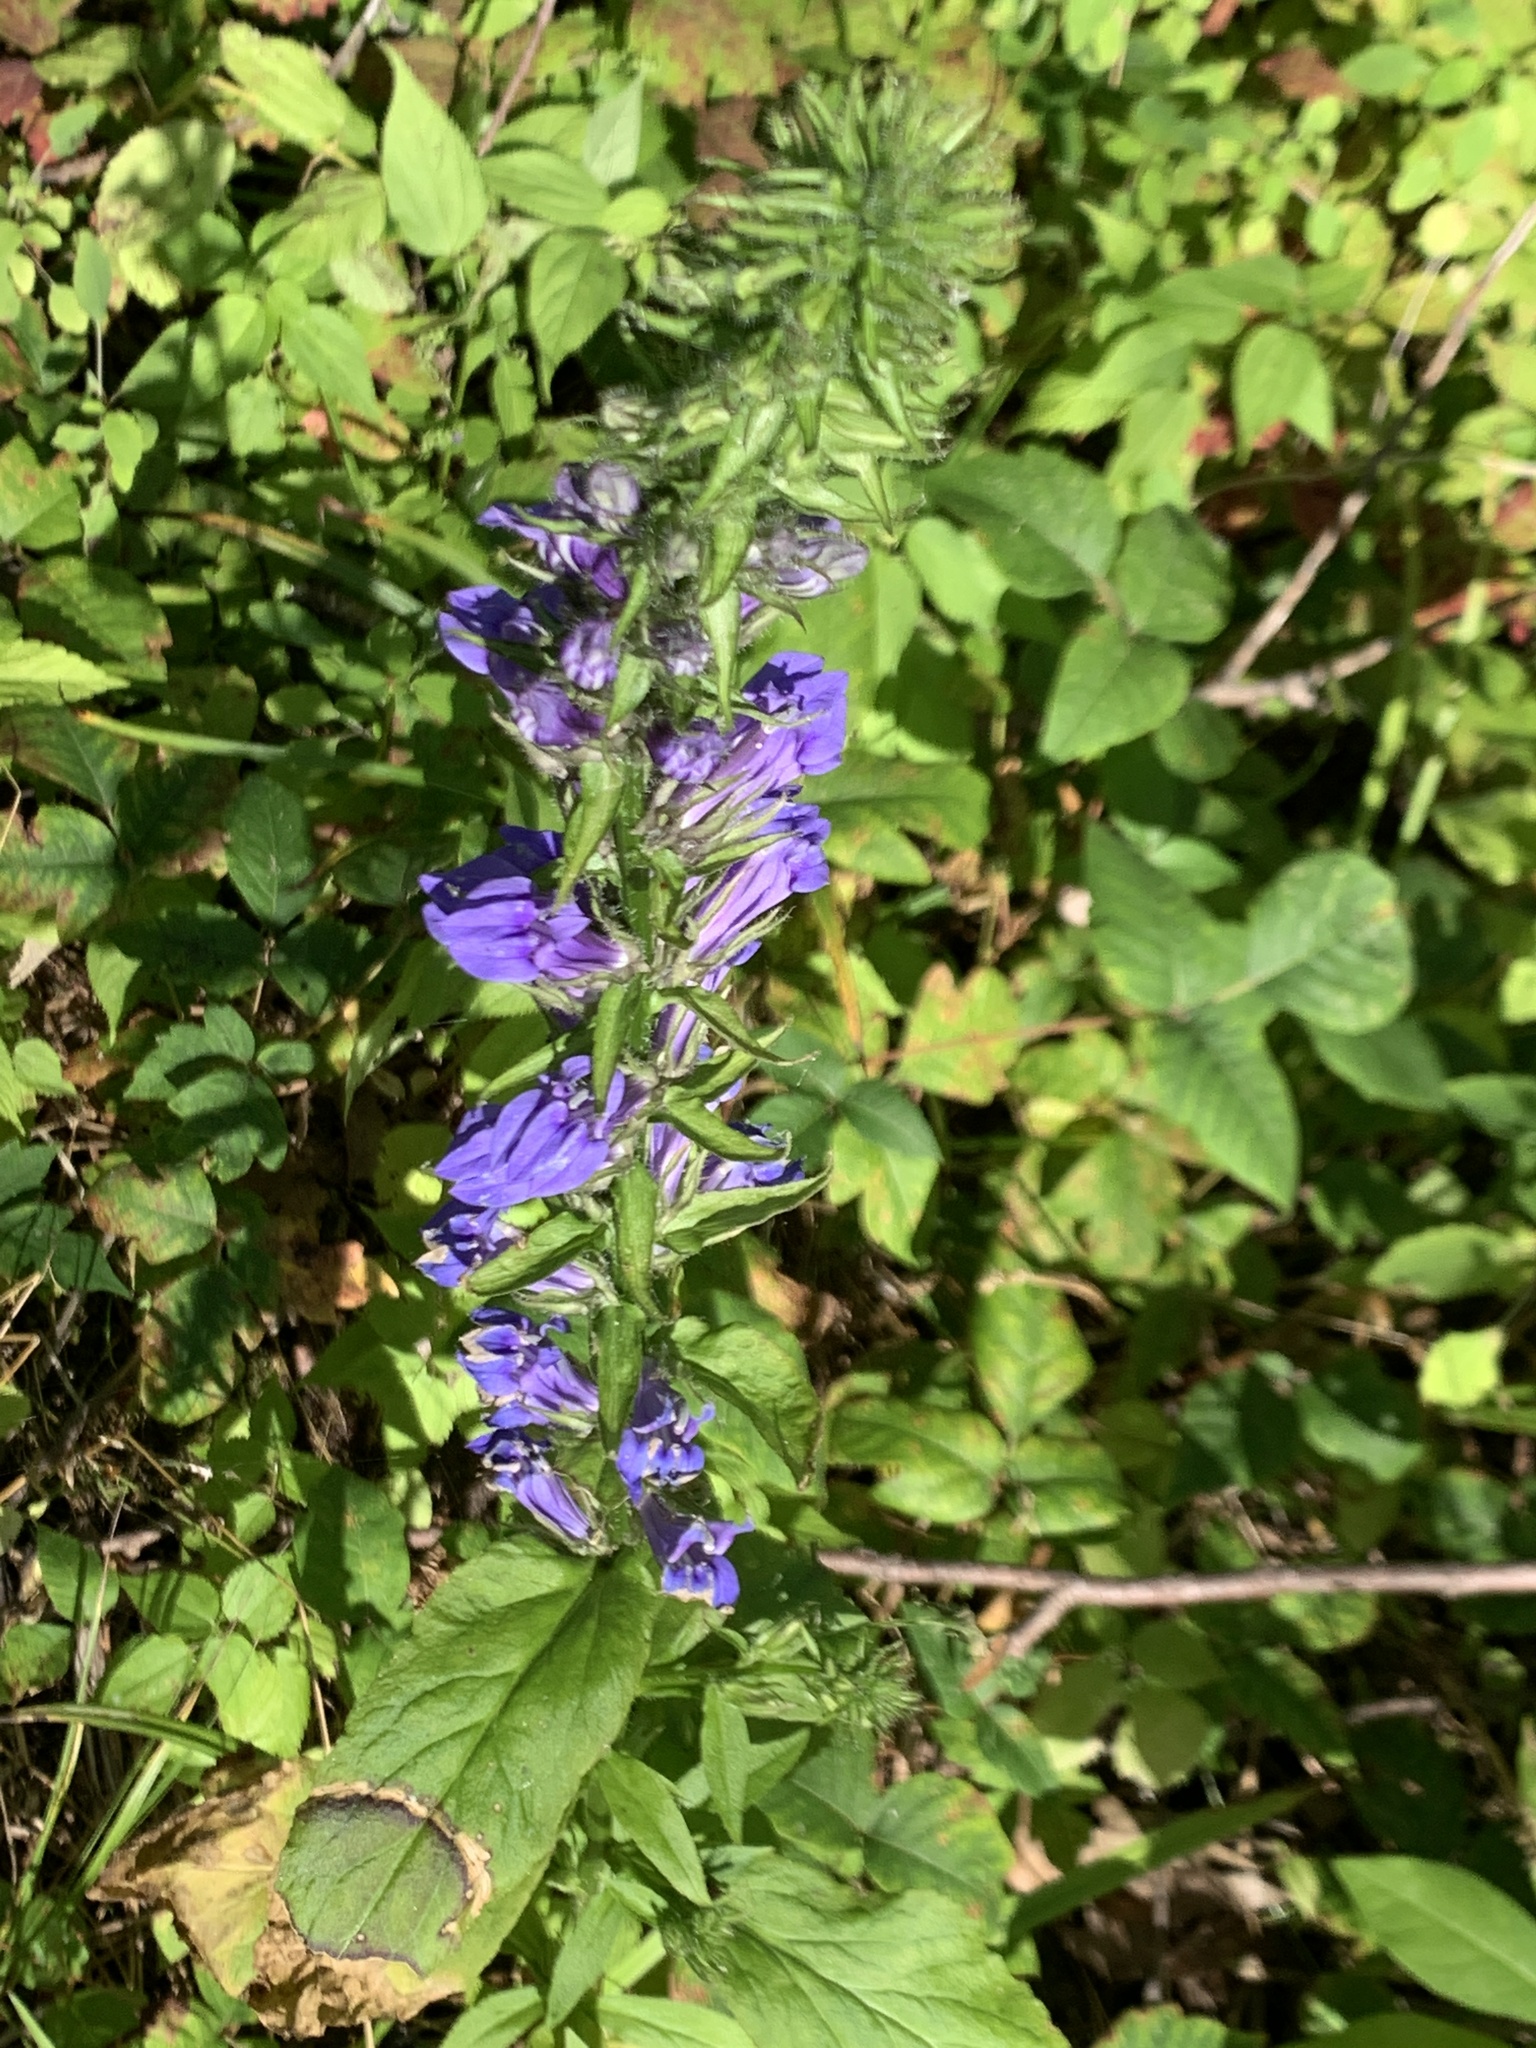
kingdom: Plantae
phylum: Tracheophyta
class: Magnoliopsida
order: Asterales
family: Campanulaceae
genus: Lobelia
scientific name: Lobelia siphilitica
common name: Great lobelia
